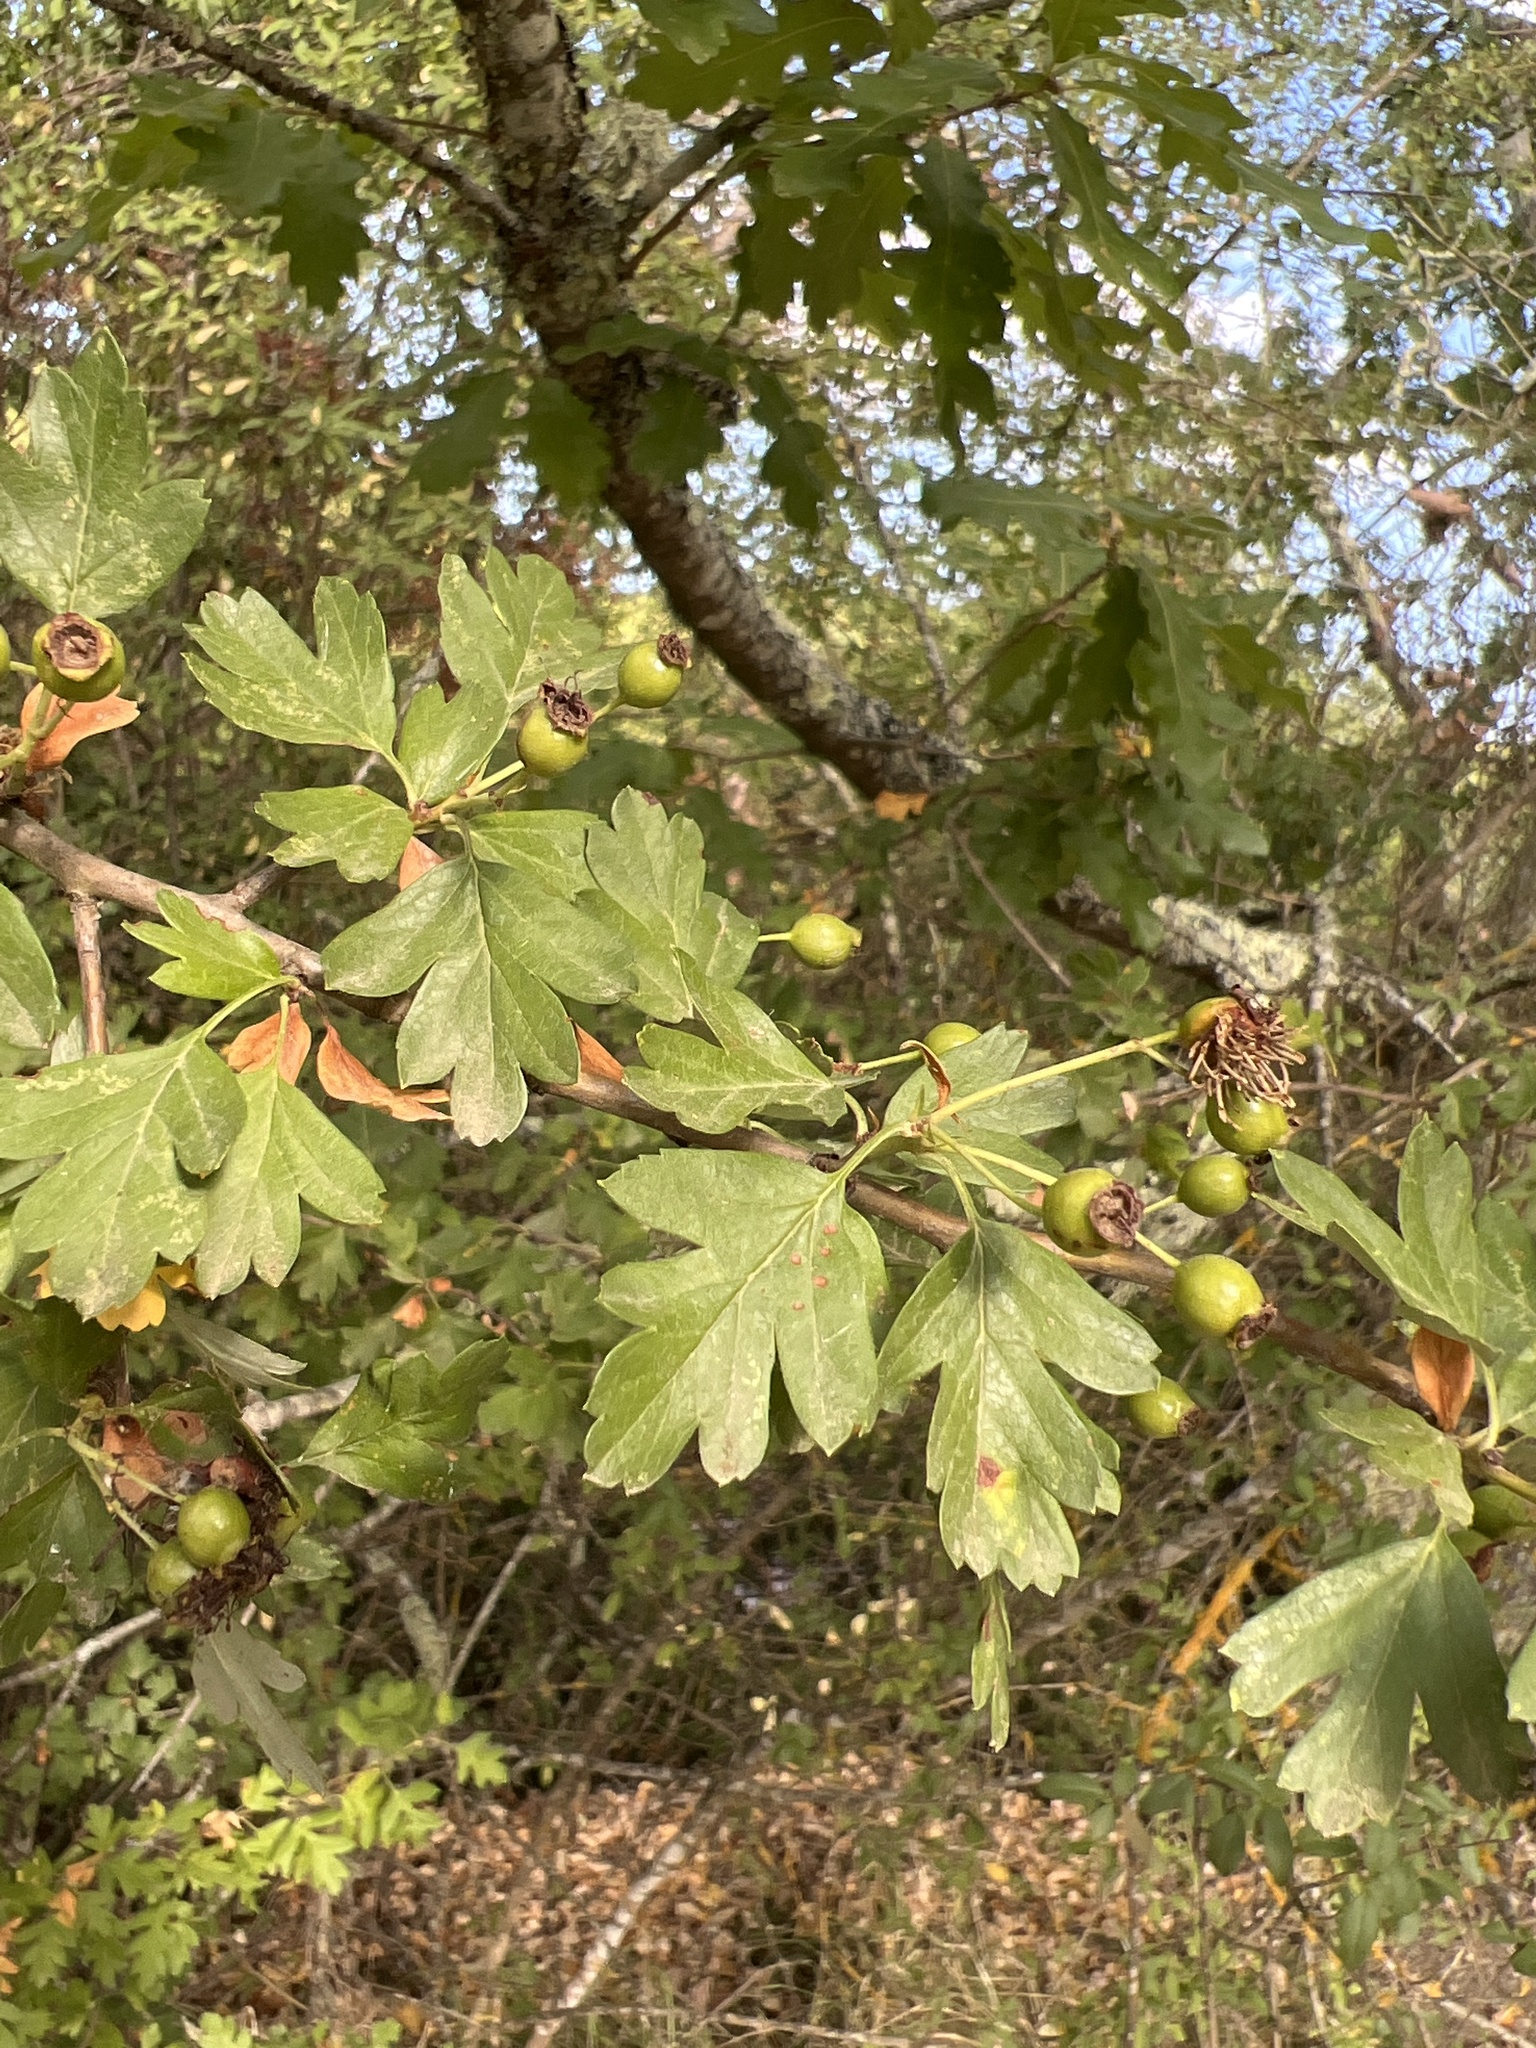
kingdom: Plantae
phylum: Tracheophyta
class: Magnoliopsida
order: Rosales
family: Rosaceae
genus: Crataegus
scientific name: Crataegus monogyna
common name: Hawthorn
